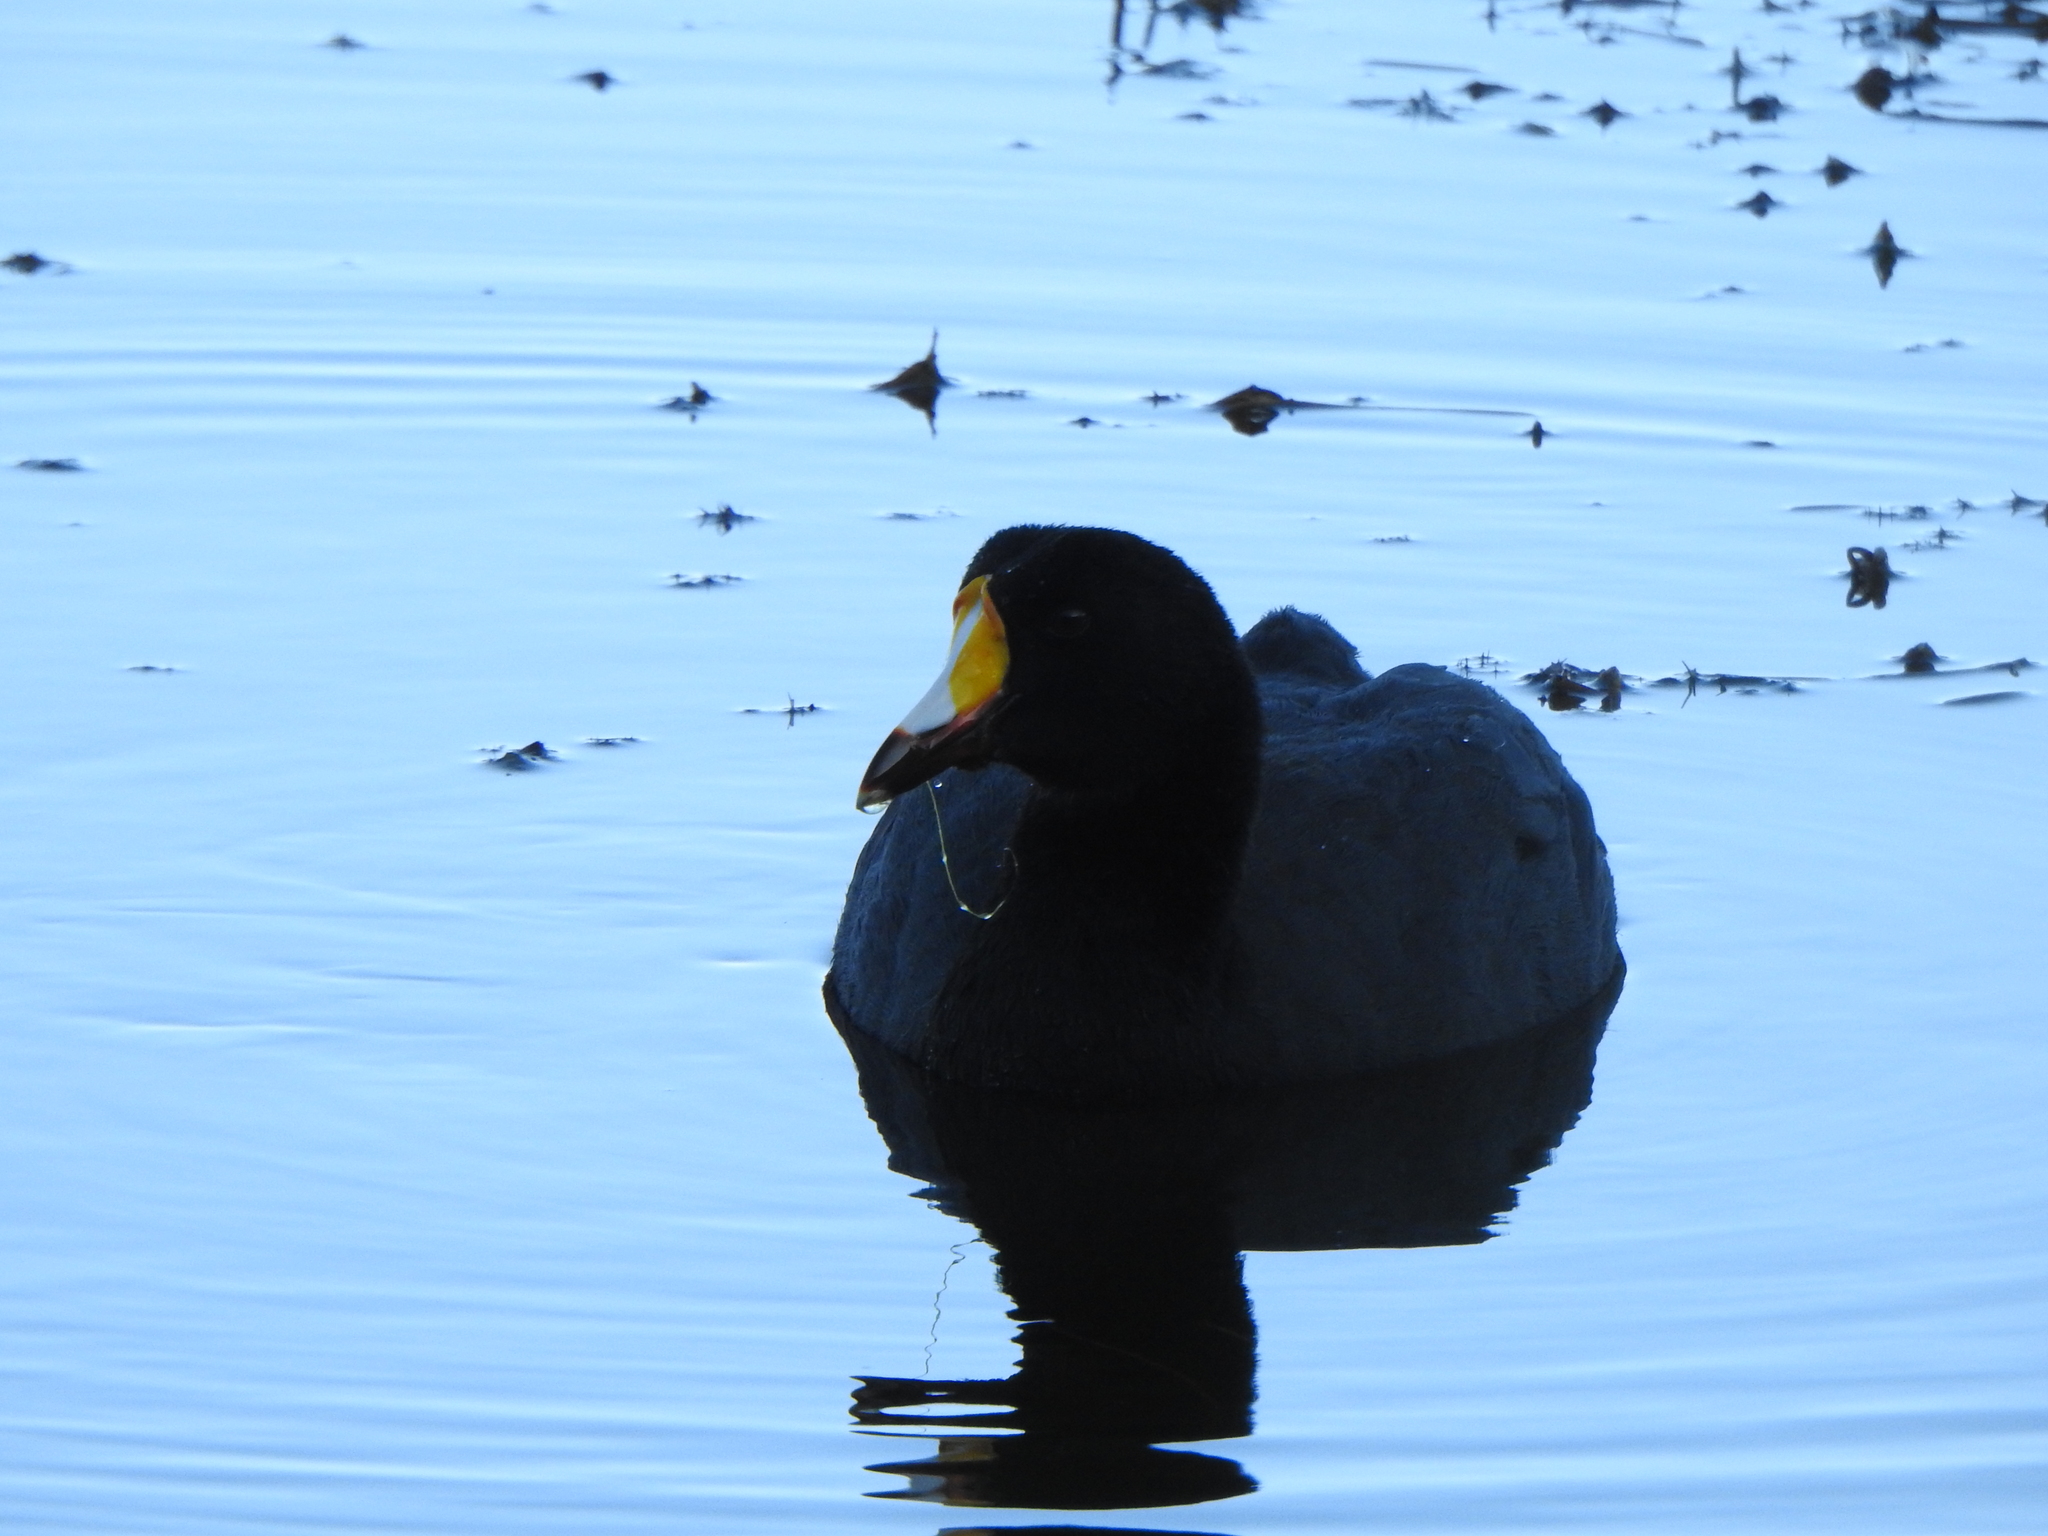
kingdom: Animalia
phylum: Chordata
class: Aves
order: Gruiformes
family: Rallidae
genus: Fulica
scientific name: Fulica gigantea
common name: Giant coot
